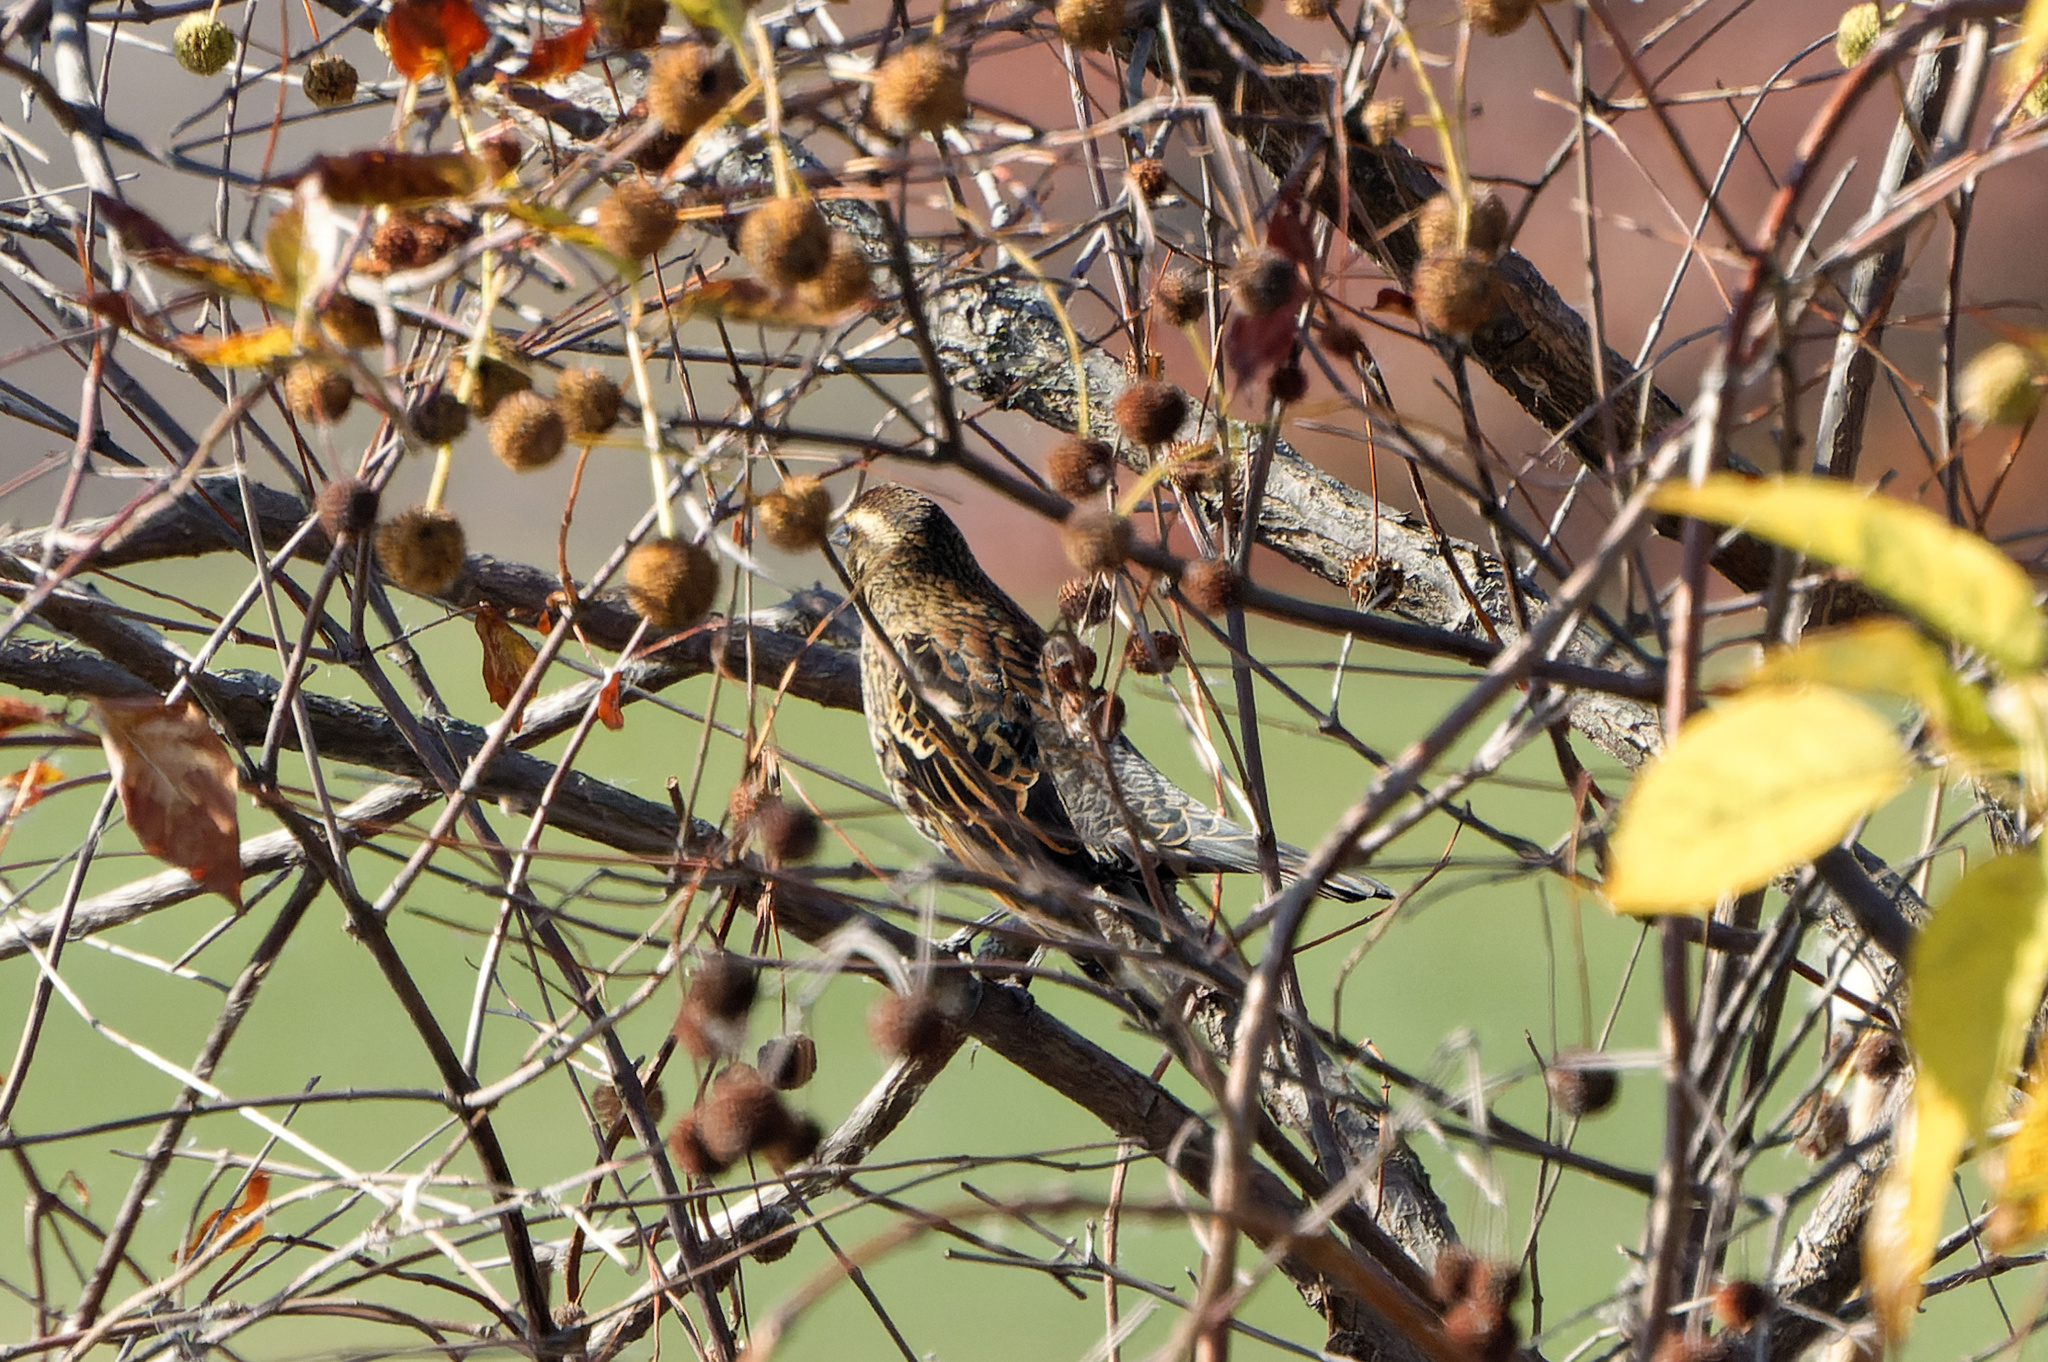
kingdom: Animalia
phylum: Chordata
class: Aves
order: Passeriformes
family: Icteridae
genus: Agelaius
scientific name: Agelaius phoeniceus
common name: Red-winged blackbird
